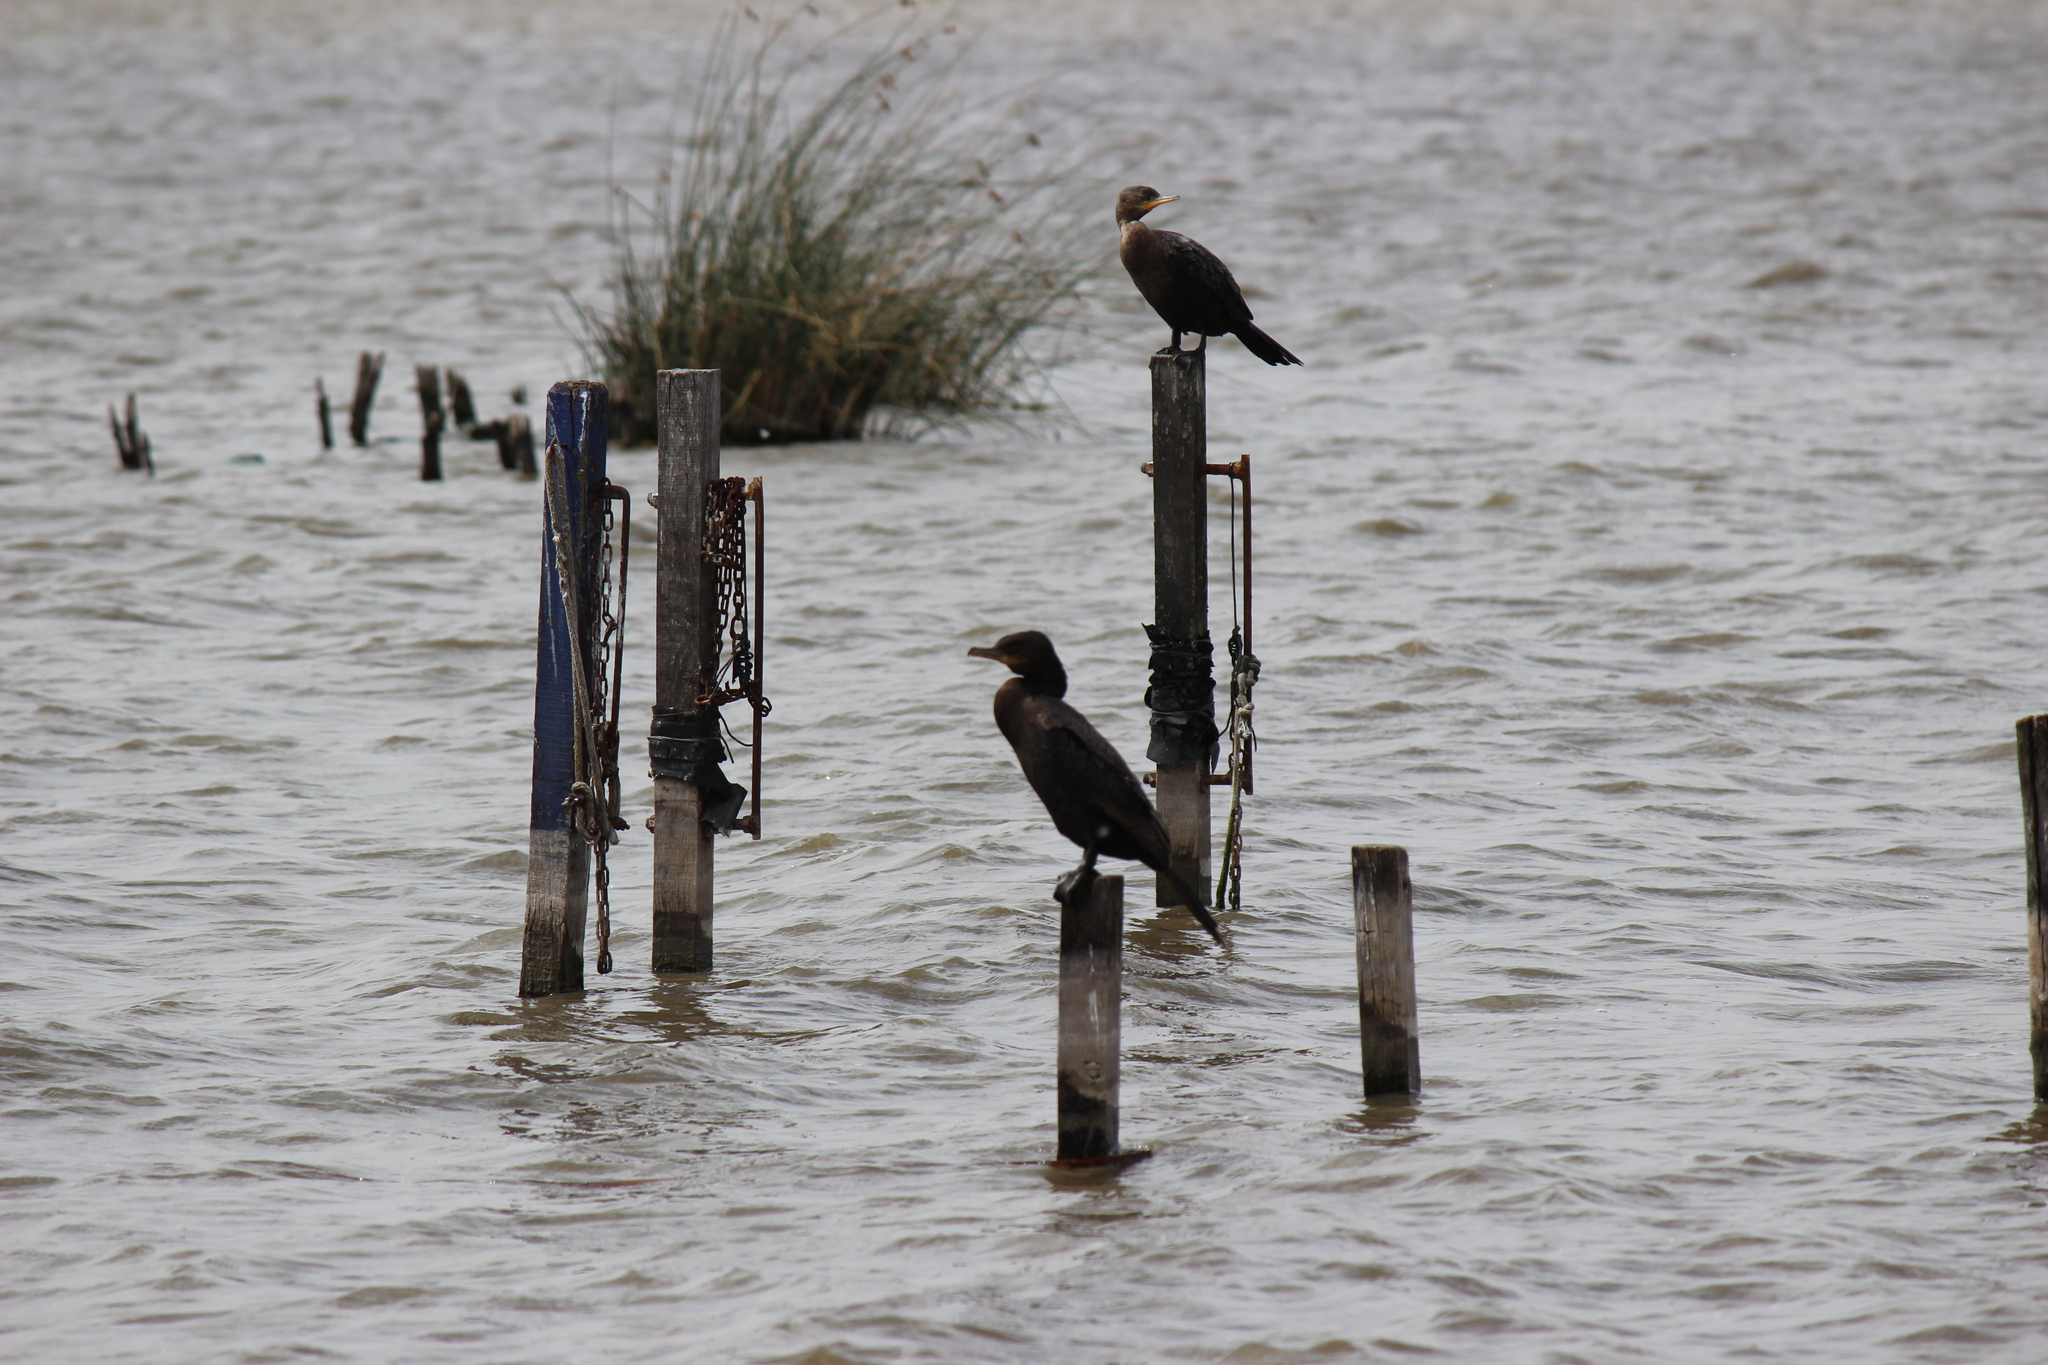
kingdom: Animalia
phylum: Chordata
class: Aves
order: Suliformes
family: Phalacrocoracidae
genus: Phalacrocorax
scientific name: Phalacrocorax brasilianus
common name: Neotropic cormorant
